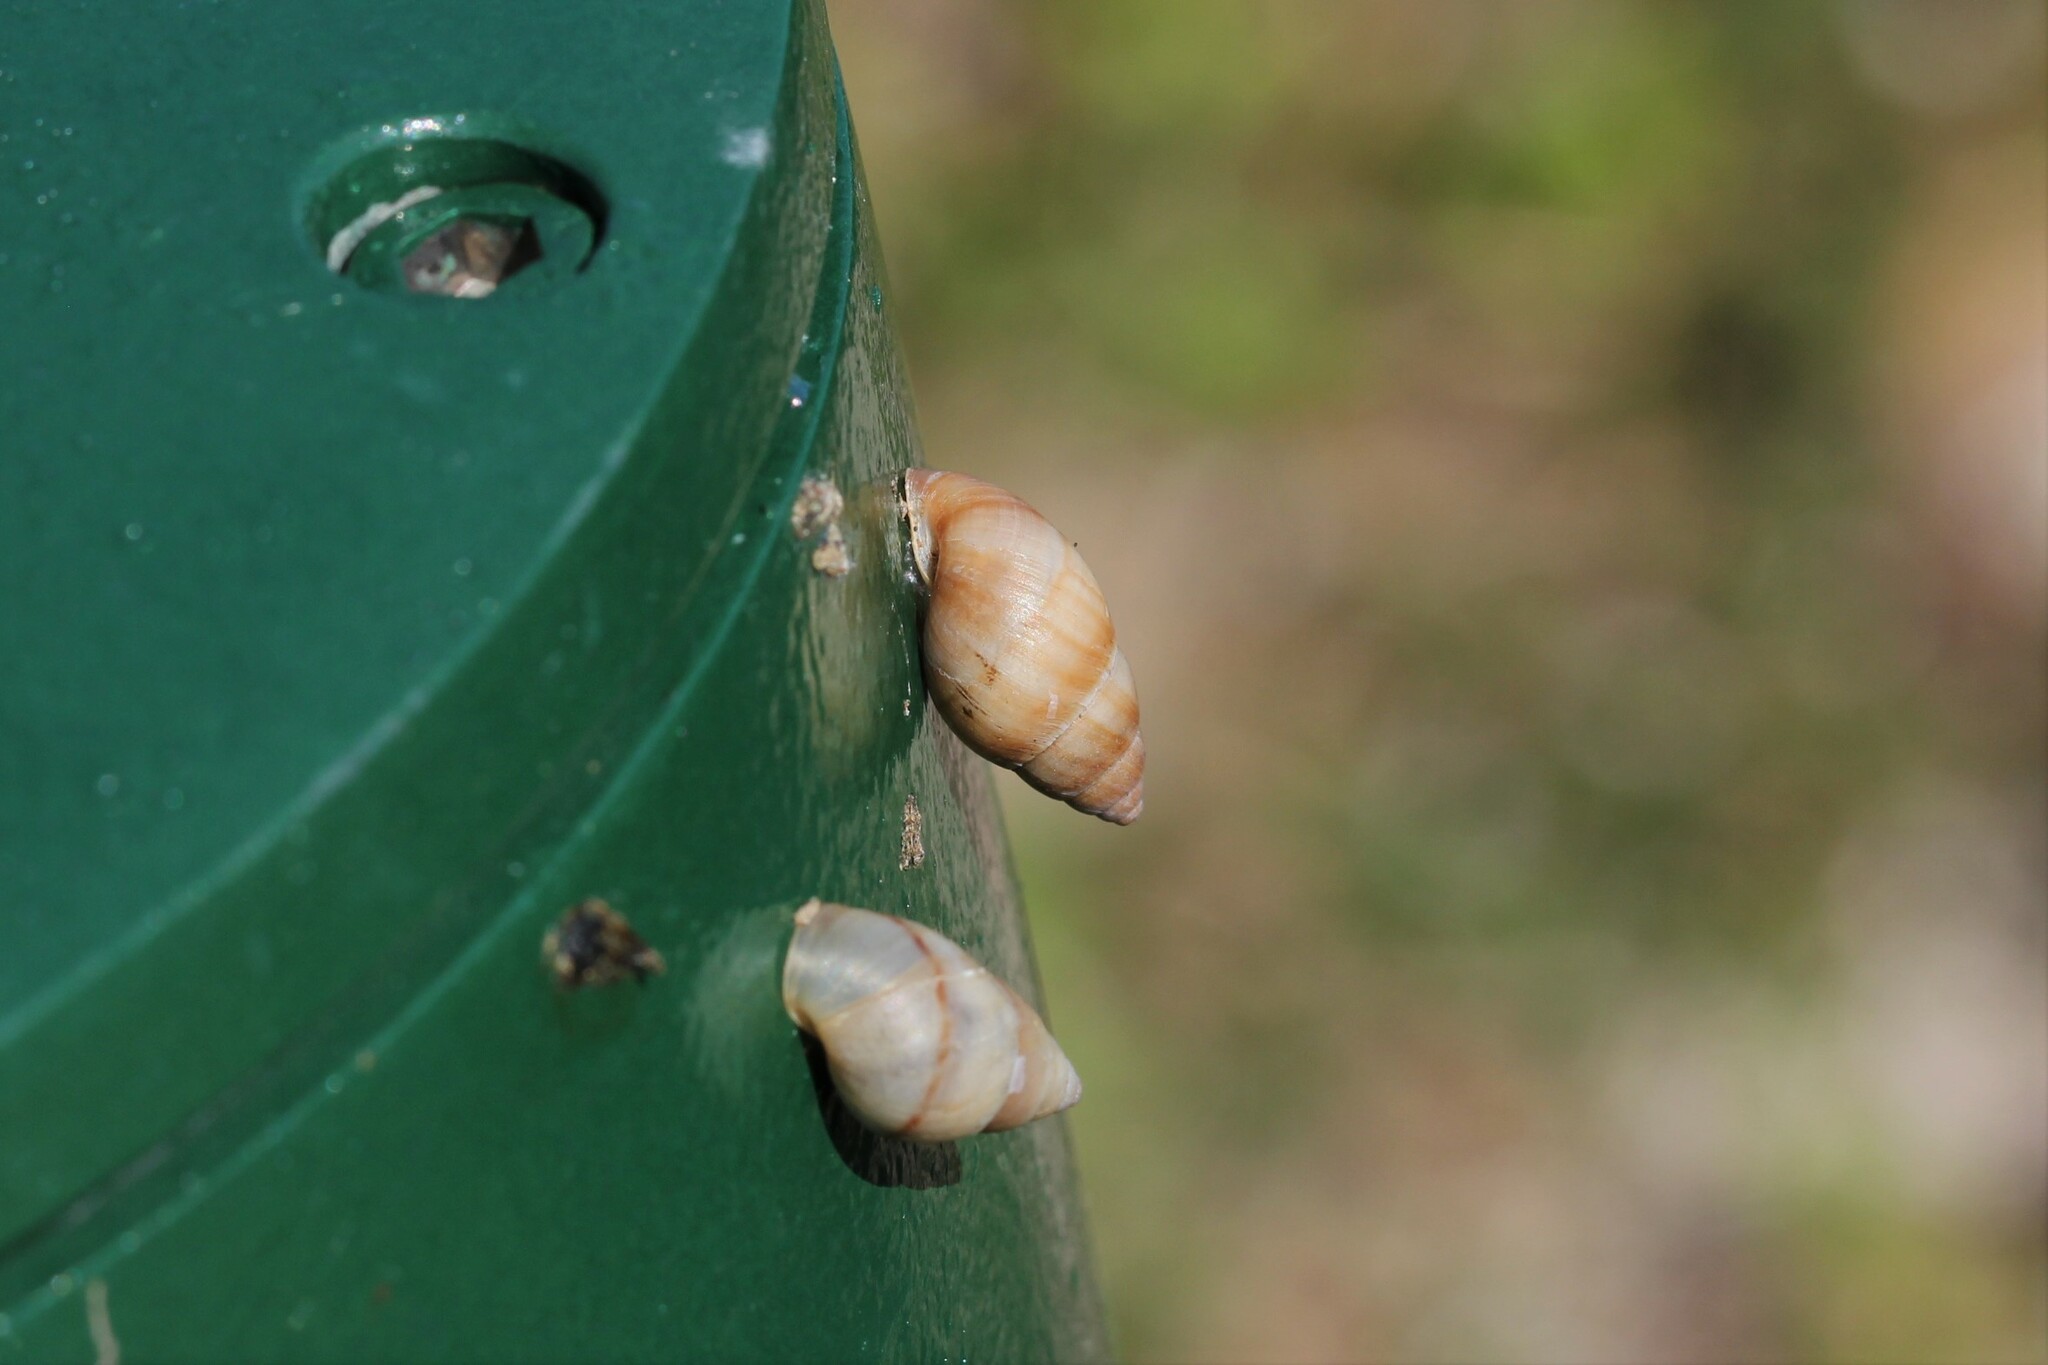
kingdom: Animalia
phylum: Mollusca
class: Gastropoda
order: Stylommatophora
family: Bulimulidae
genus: Bulimulus
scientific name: Bulimulus guadalupensis
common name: West indian bulimulus
